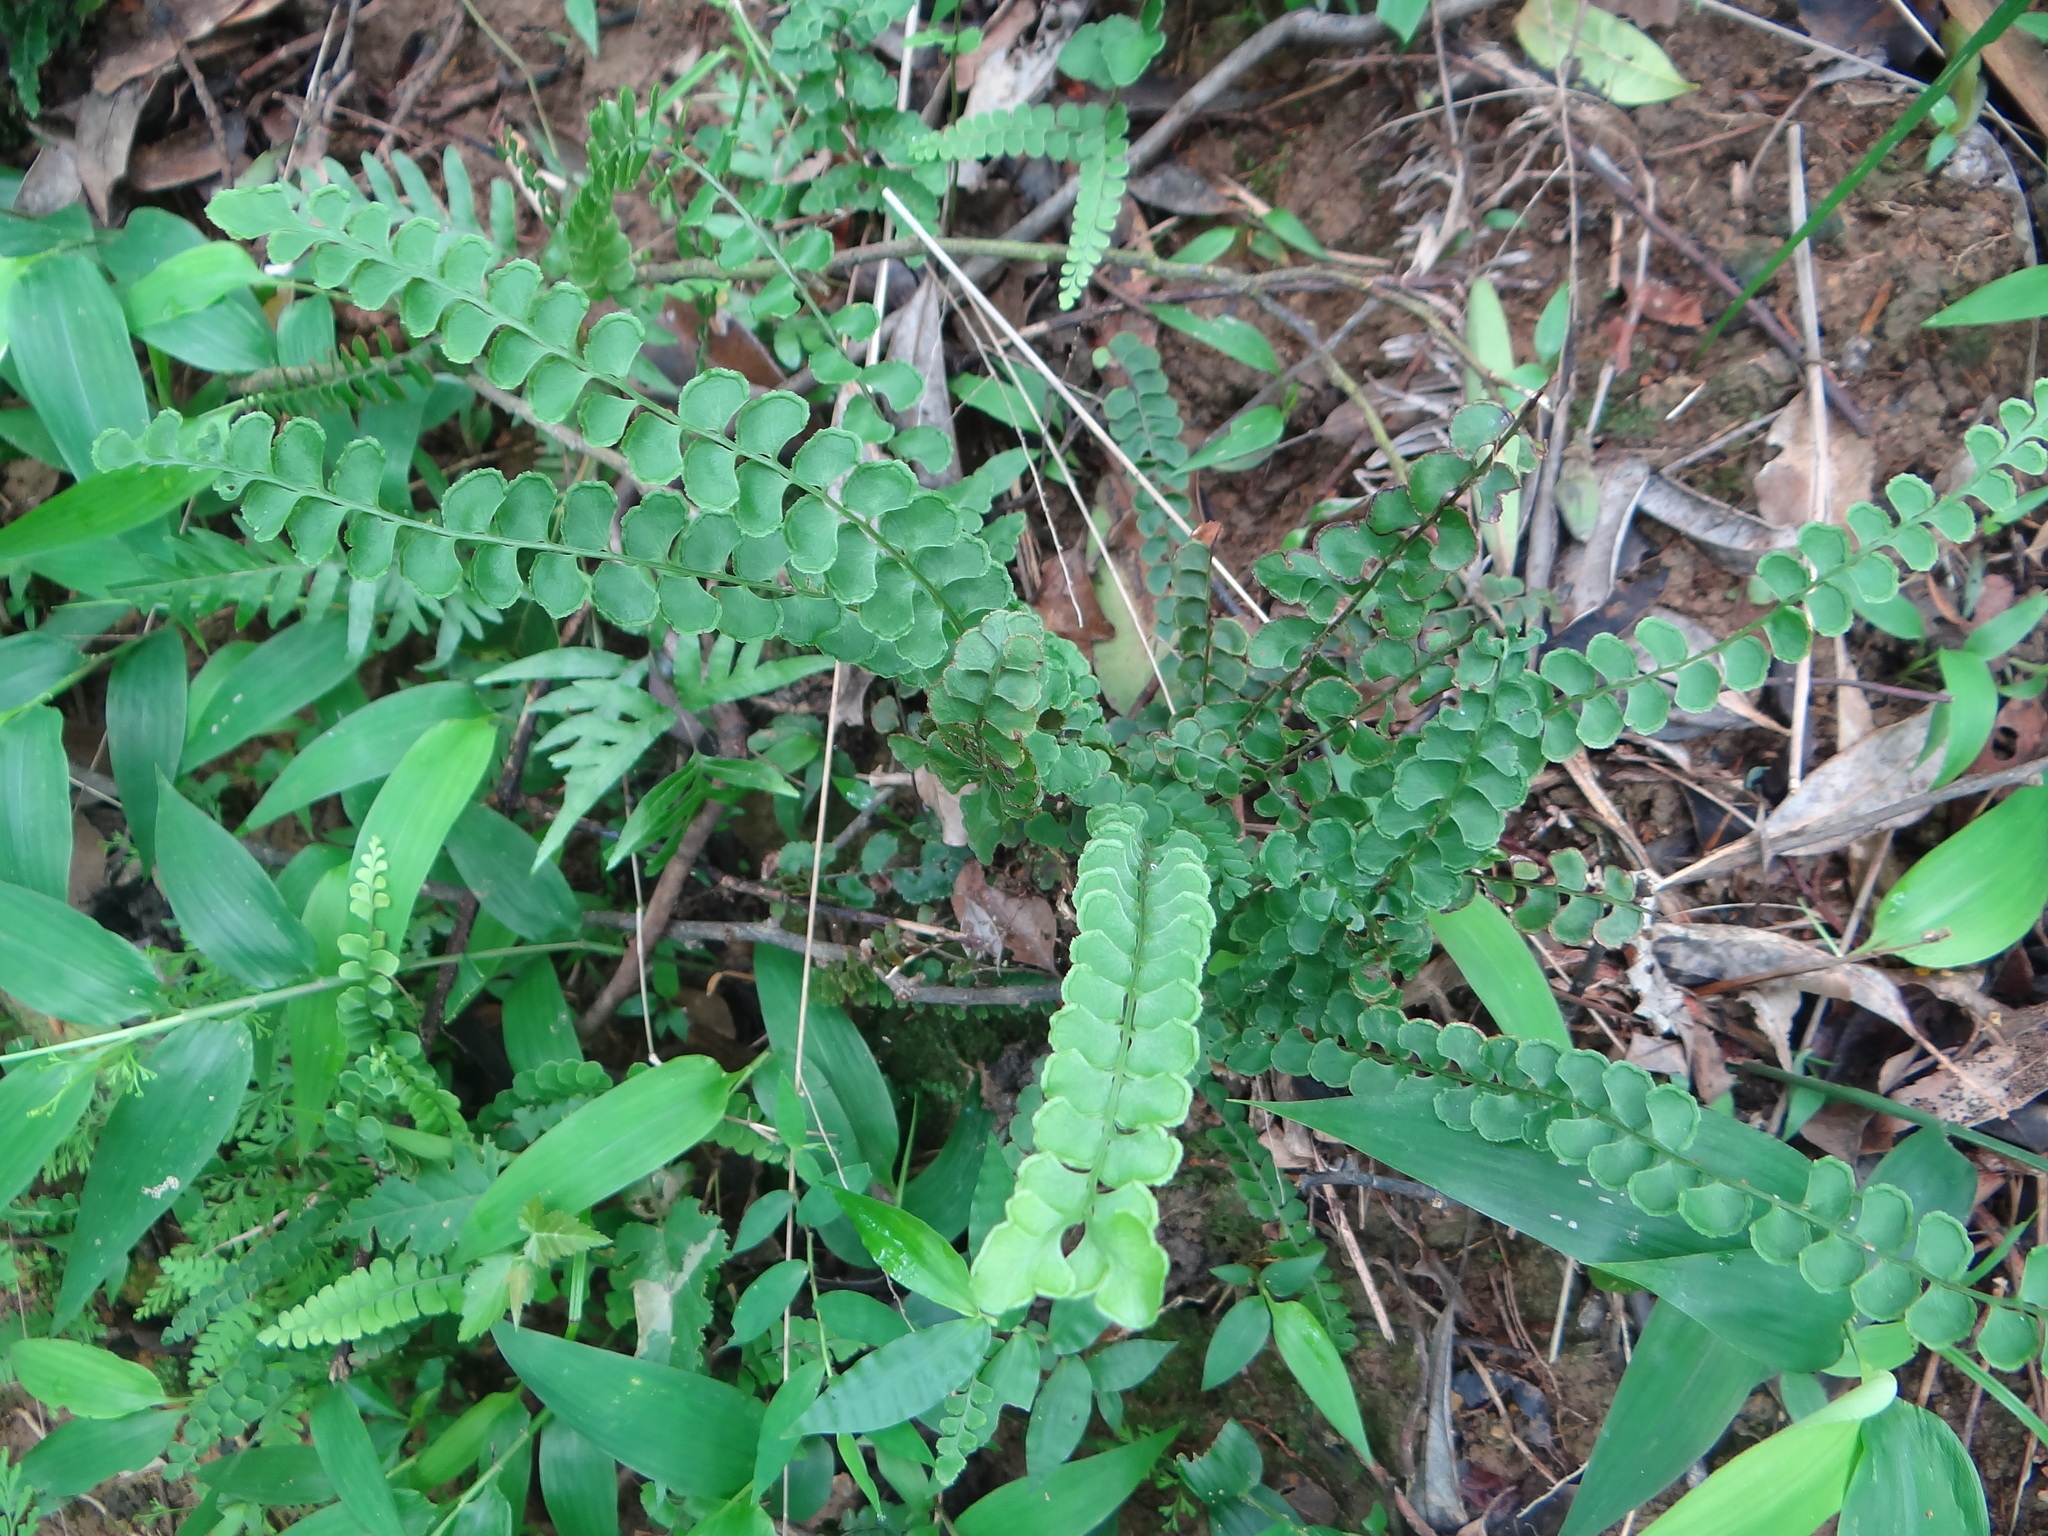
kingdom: Plantae
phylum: Tracheophyta
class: Polypodiopsida
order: Polypodiales
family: Lindsaeaceae
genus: Lindsaea
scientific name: Lindsaea orbiculata
